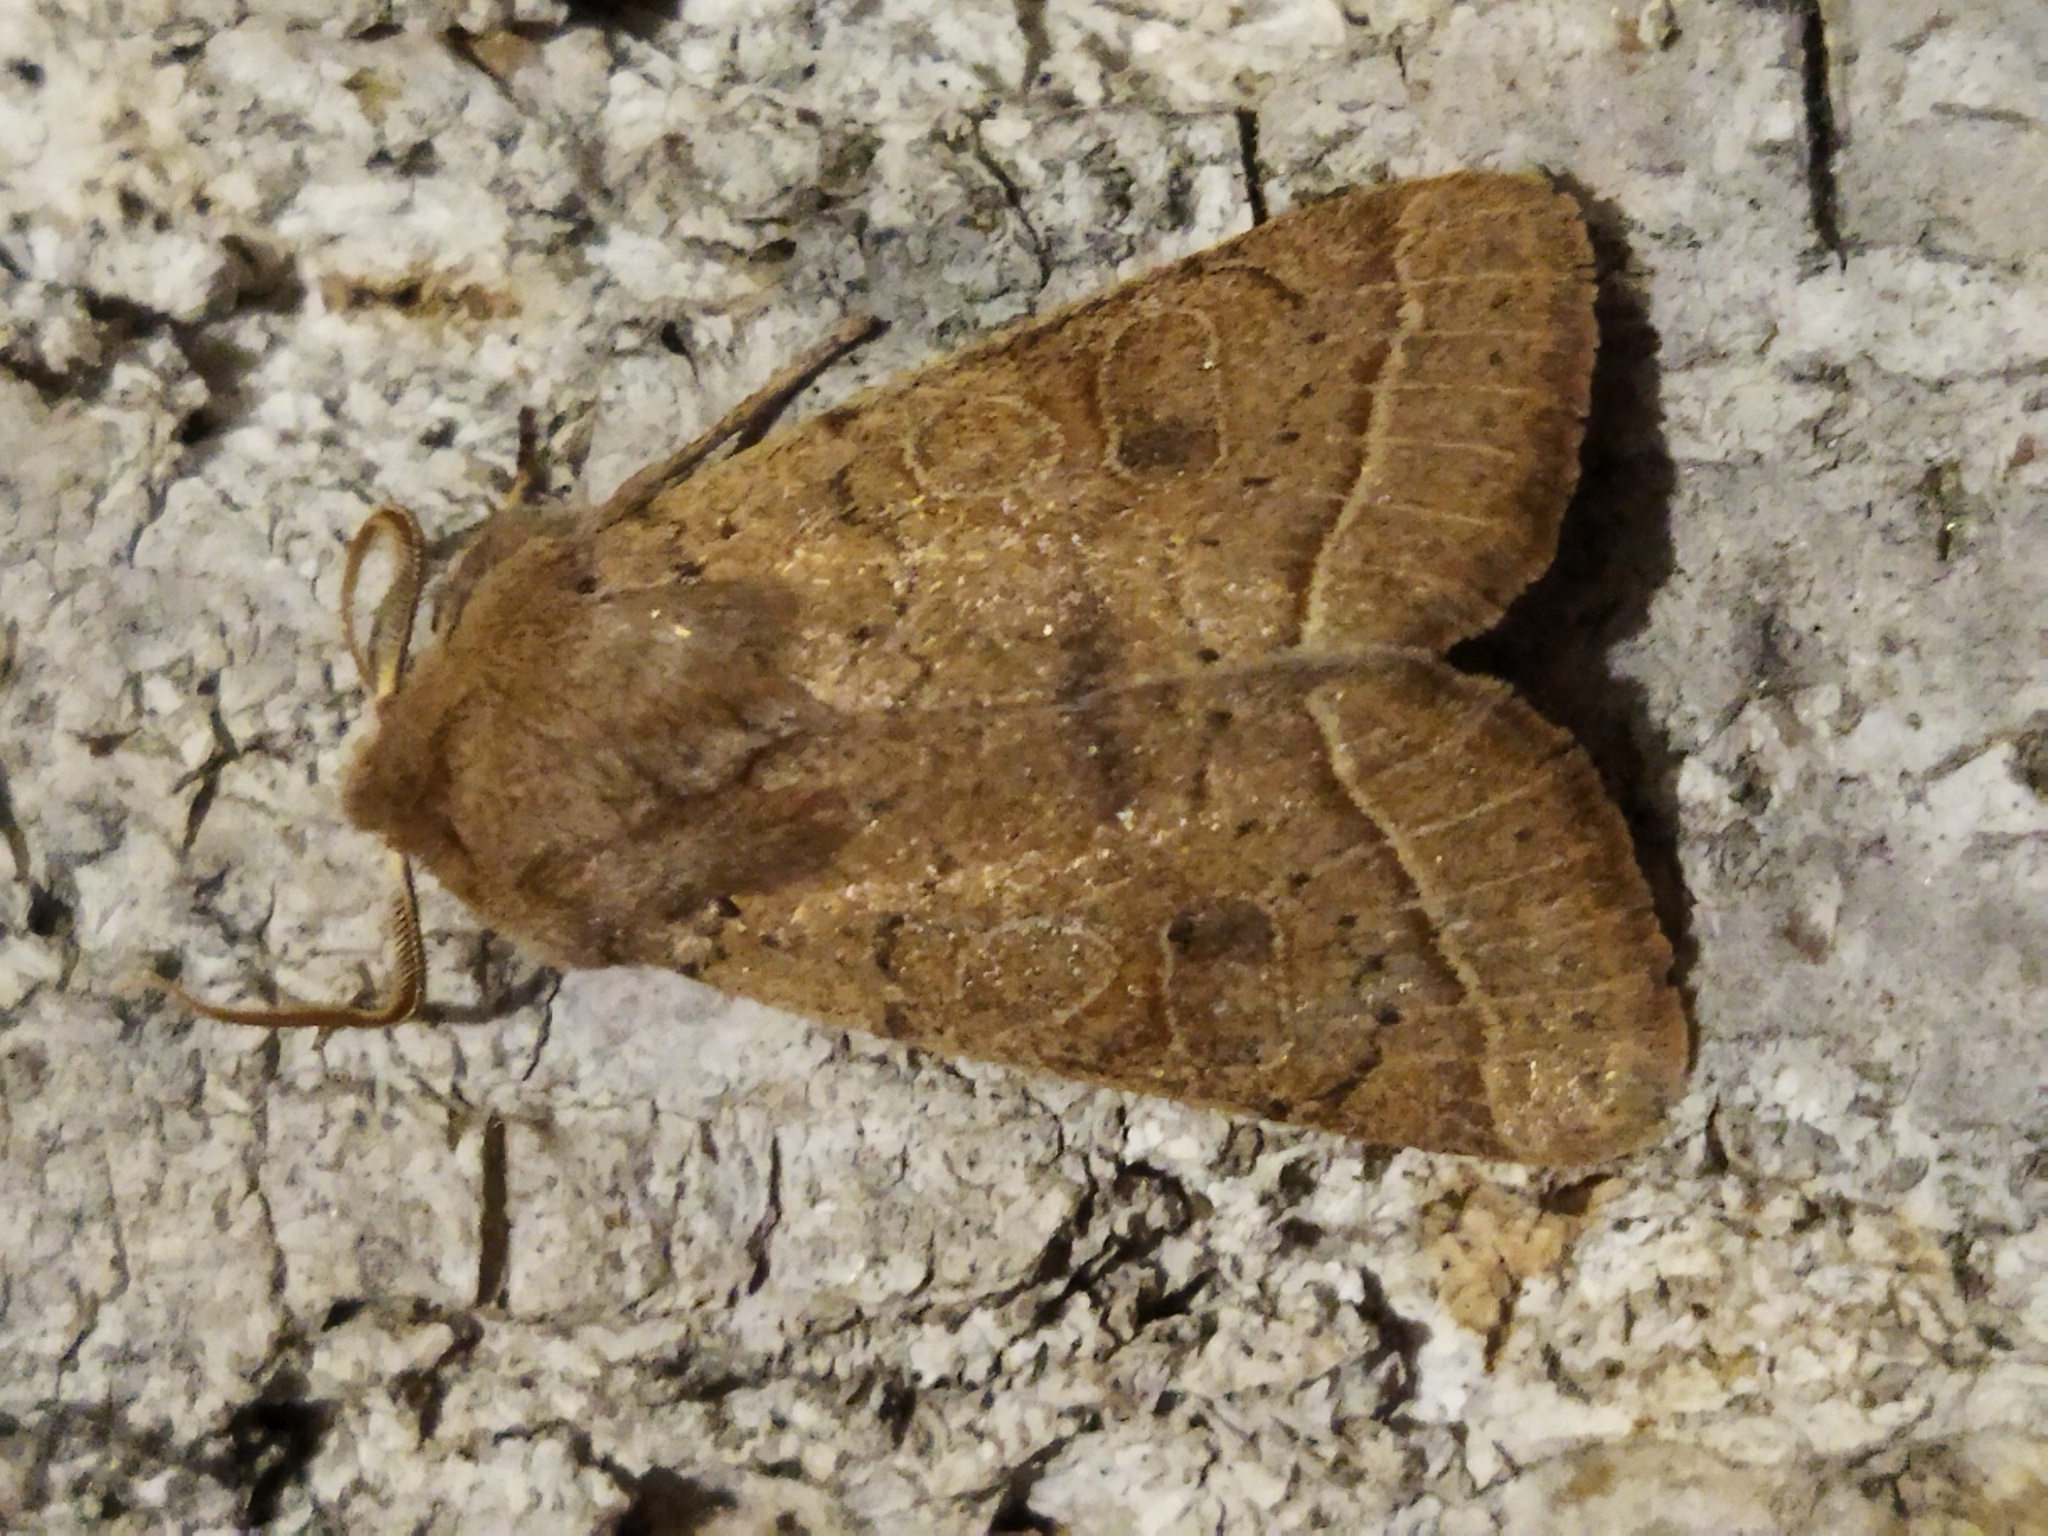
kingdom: Animalia
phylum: Arthropoda
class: Insecta
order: Lepidoptera
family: Noctuidae
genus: Orthosia
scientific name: Orthosia cerasi
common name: Common quaker
